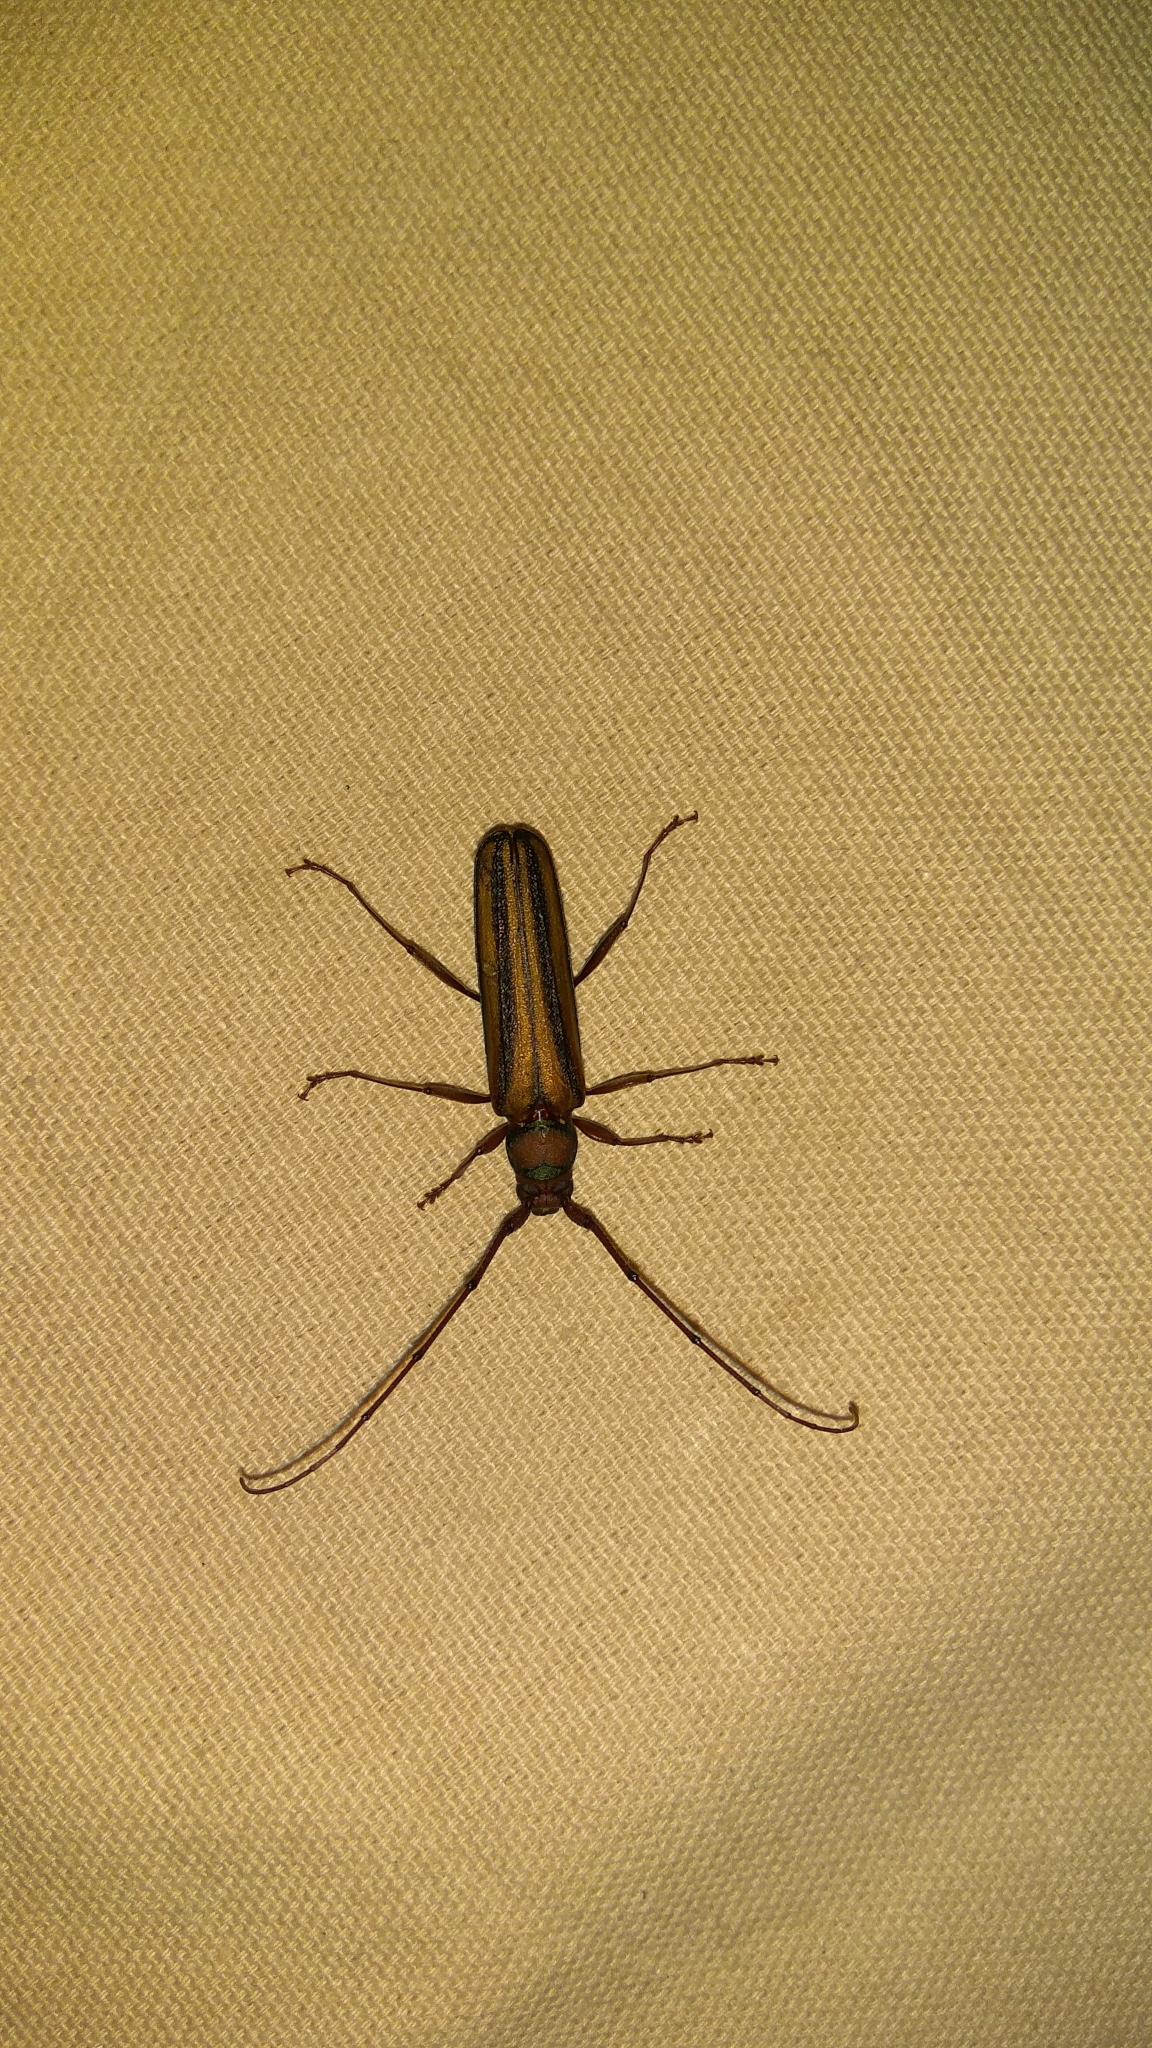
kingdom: Animalia
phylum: Arthropoda
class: Insecta
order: Coleoptera
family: Cerambycidae
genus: Xystrocera
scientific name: Xystrocera globosa
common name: Peach-tree longhorn
